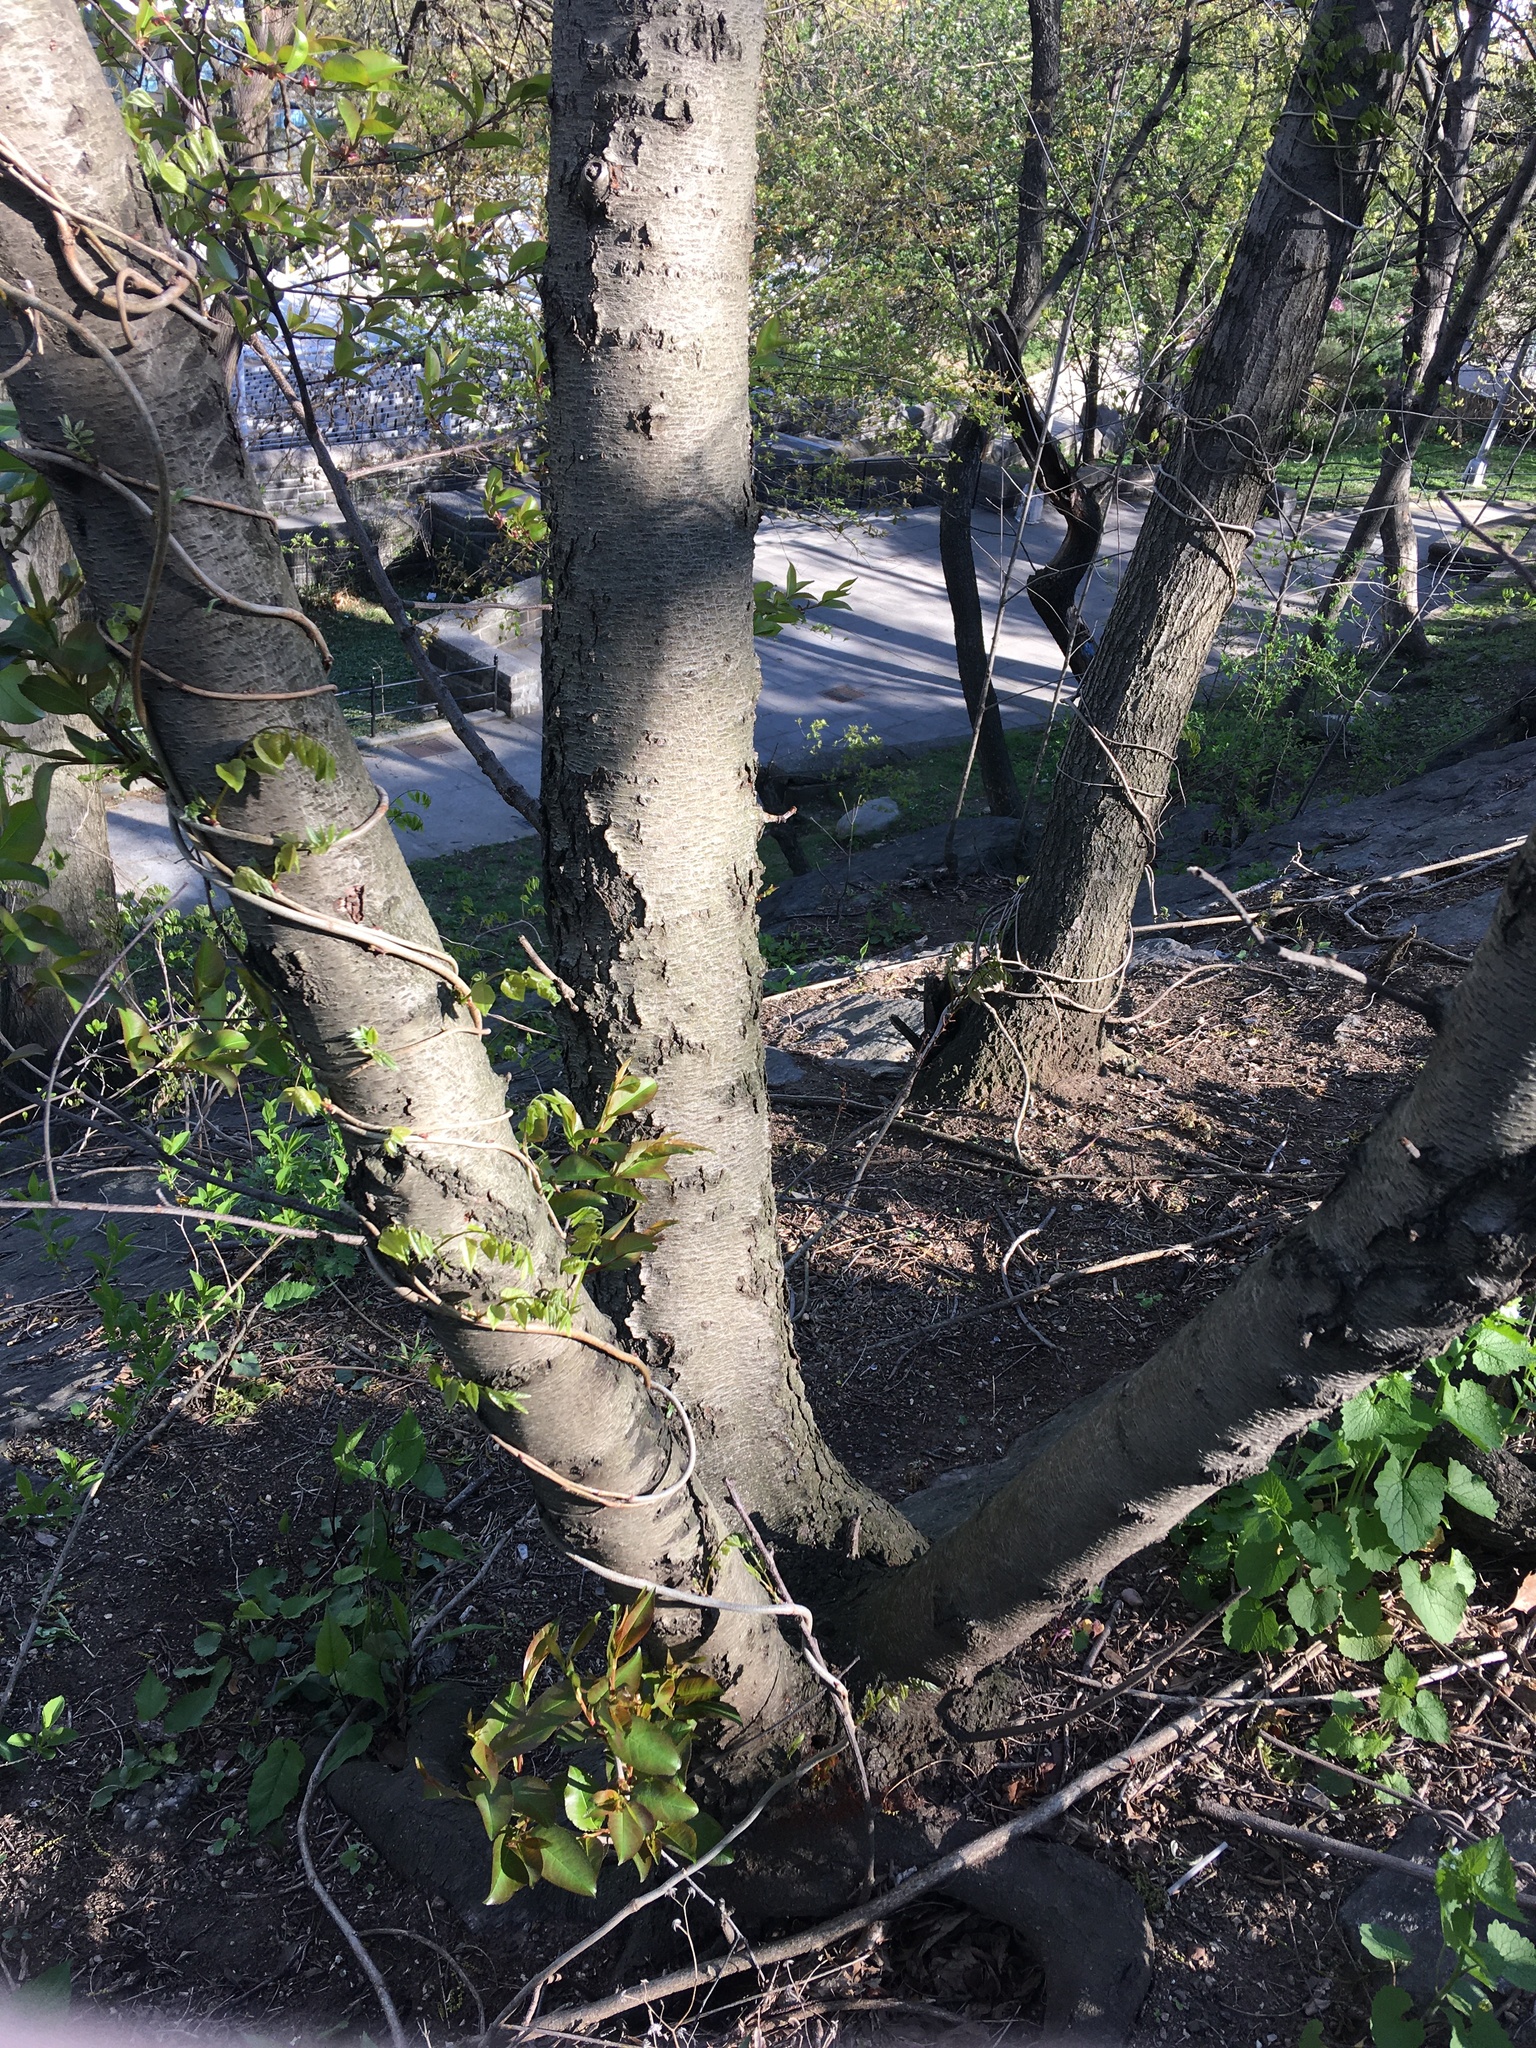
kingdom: Plantae
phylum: Tracheophyta
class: Magnoliopsida
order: Rosales
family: Rosaceae
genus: Prunus
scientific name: Prunus serotina
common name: Black cherry
